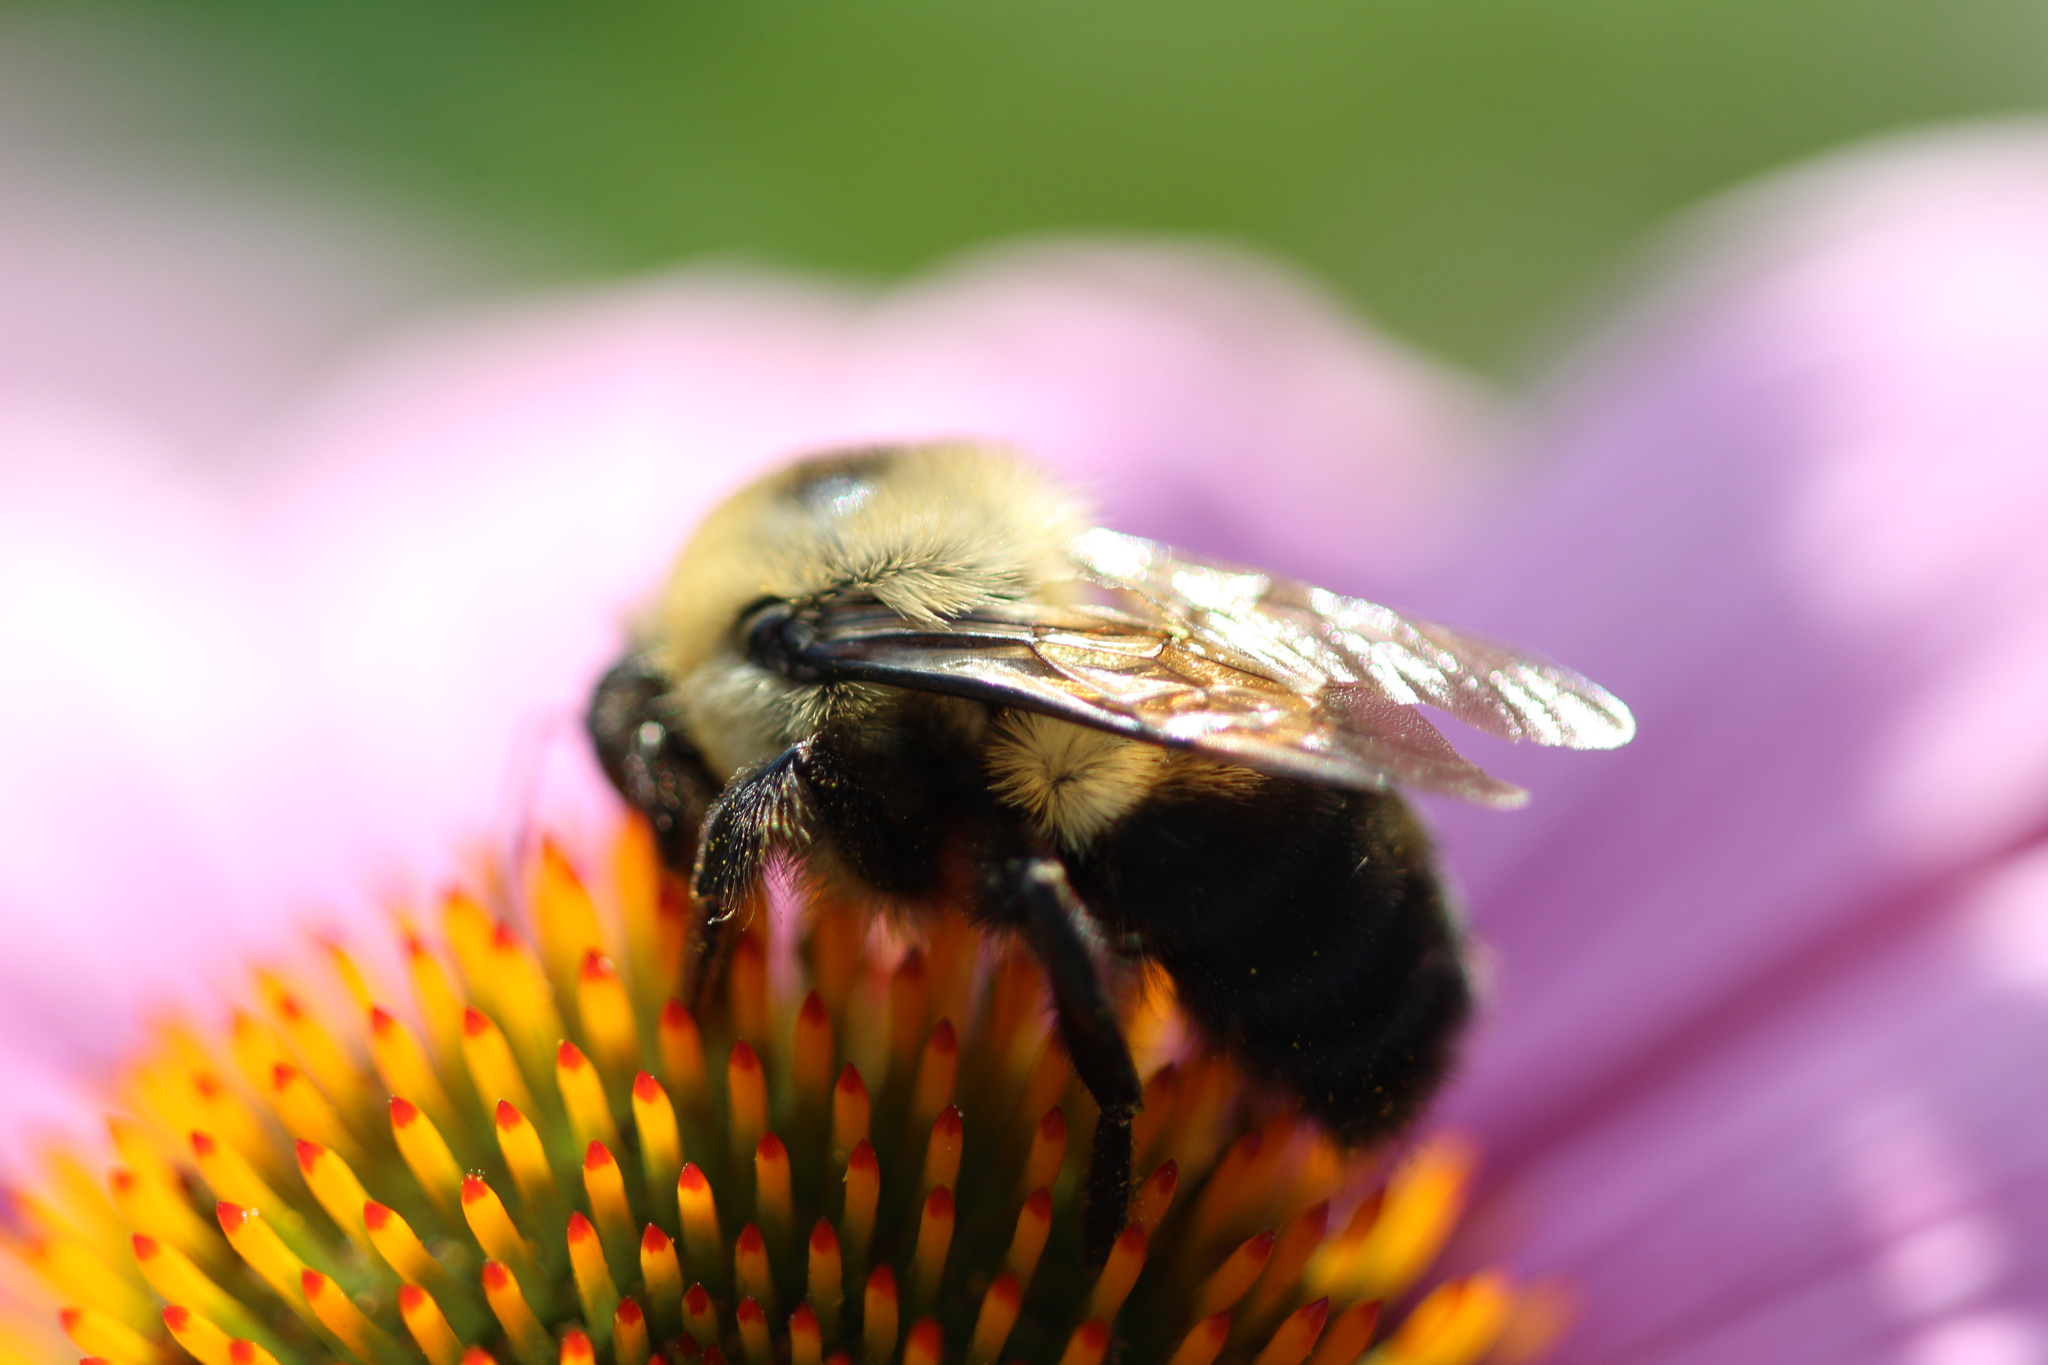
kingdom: Animalia
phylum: Arthropoda
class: Insecta
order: Hymenoptera
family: Apidae
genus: Bombus
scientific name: Bombus griseocollis
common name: Brown-belted bumble bee
